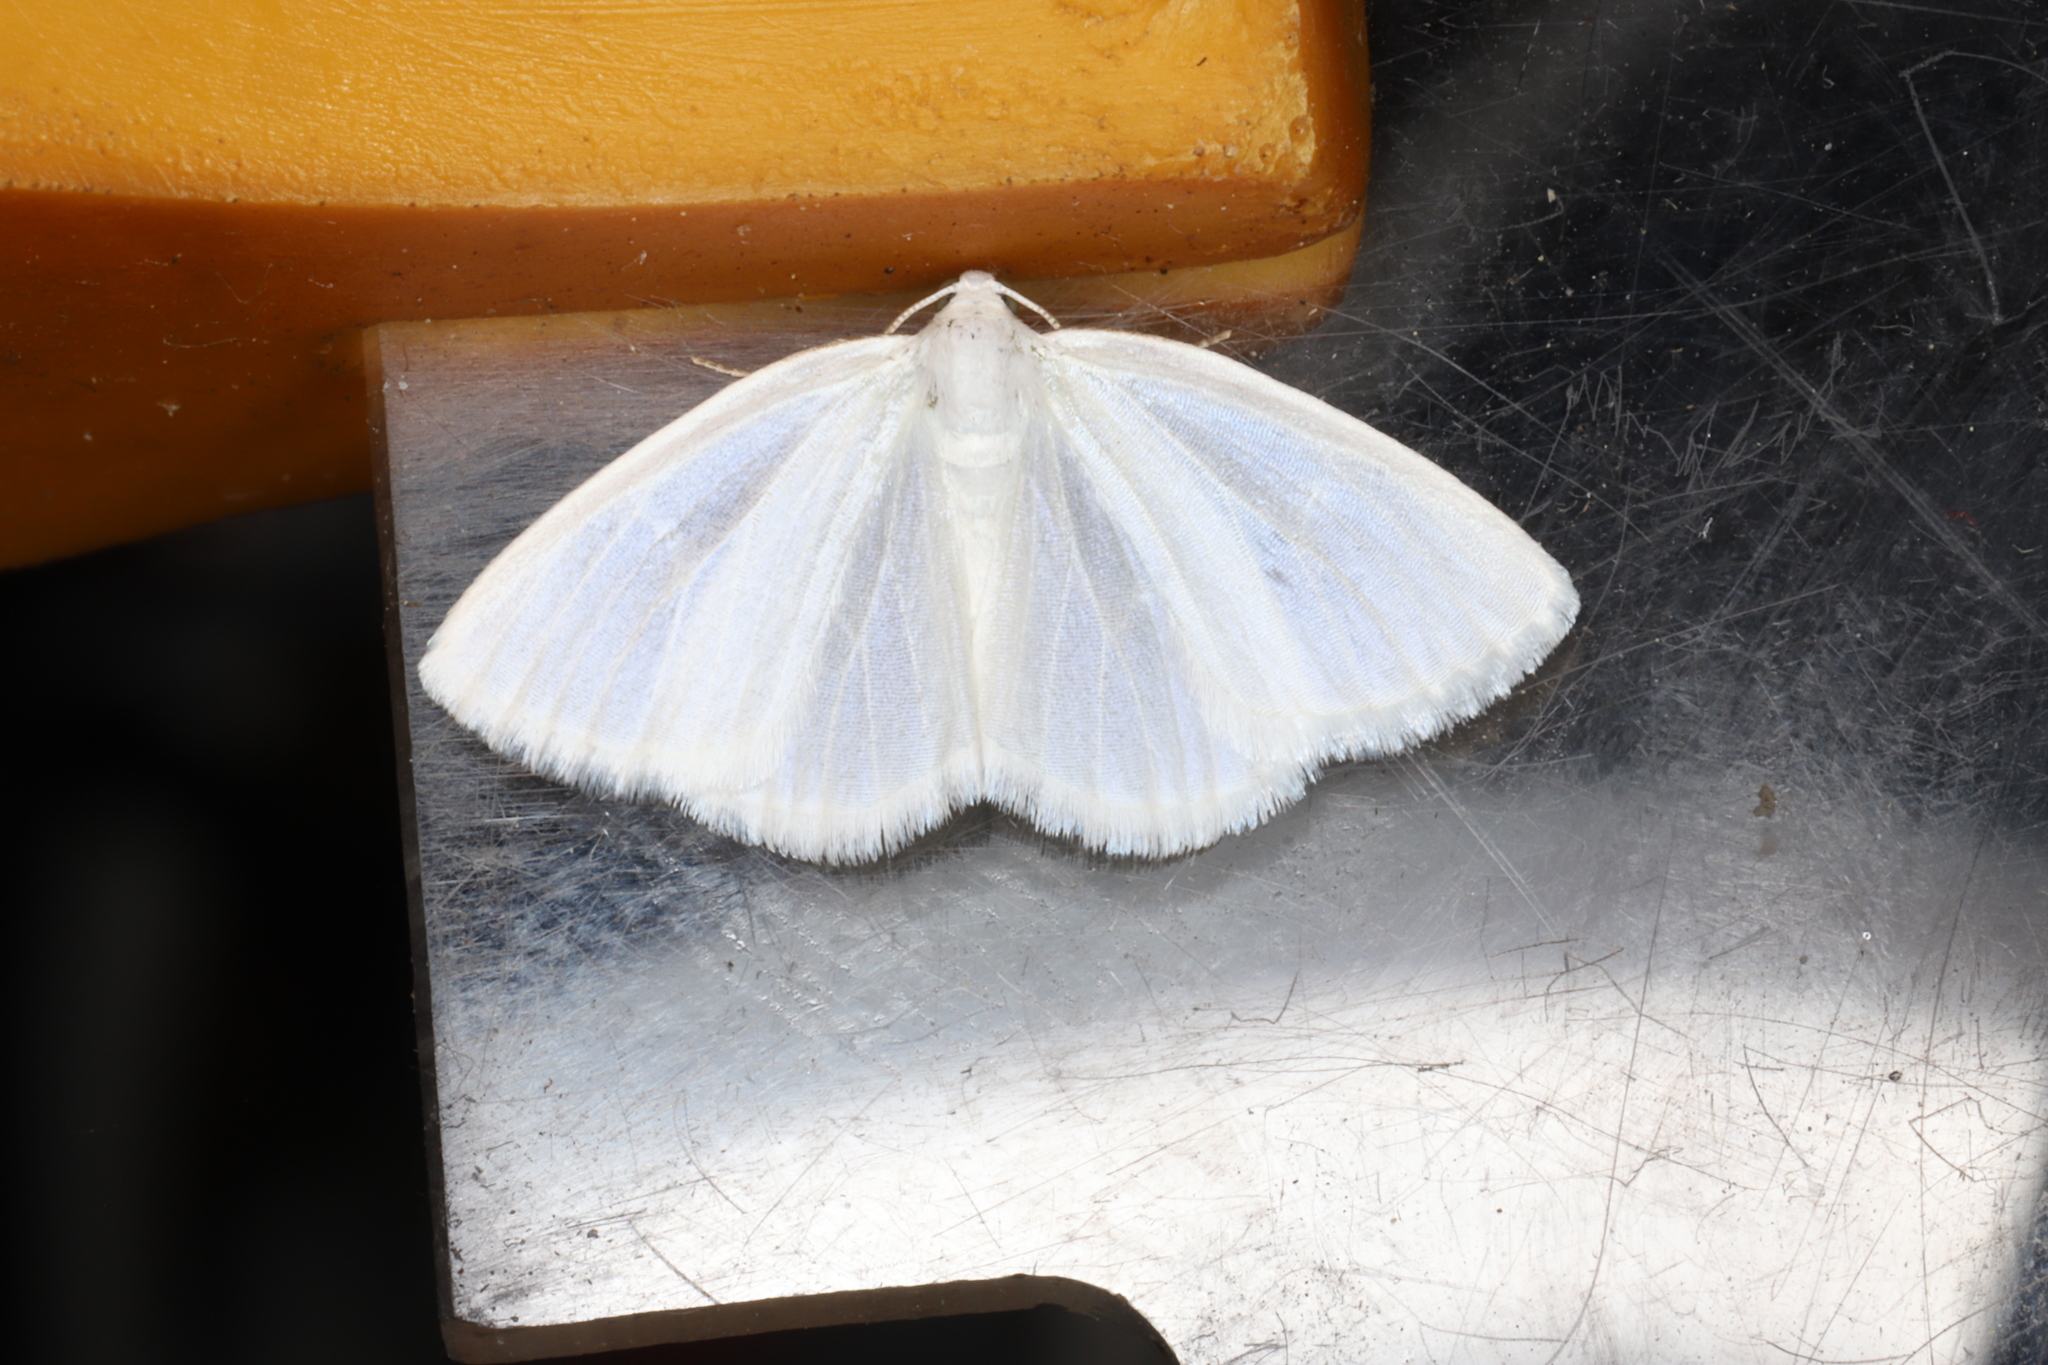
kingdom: Animalia
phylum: Arthropoda
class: Insecta
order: Lepidoptera
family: Geometridae
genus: Lomographa
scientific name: Lomographa vestaliata
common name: White spring moth
